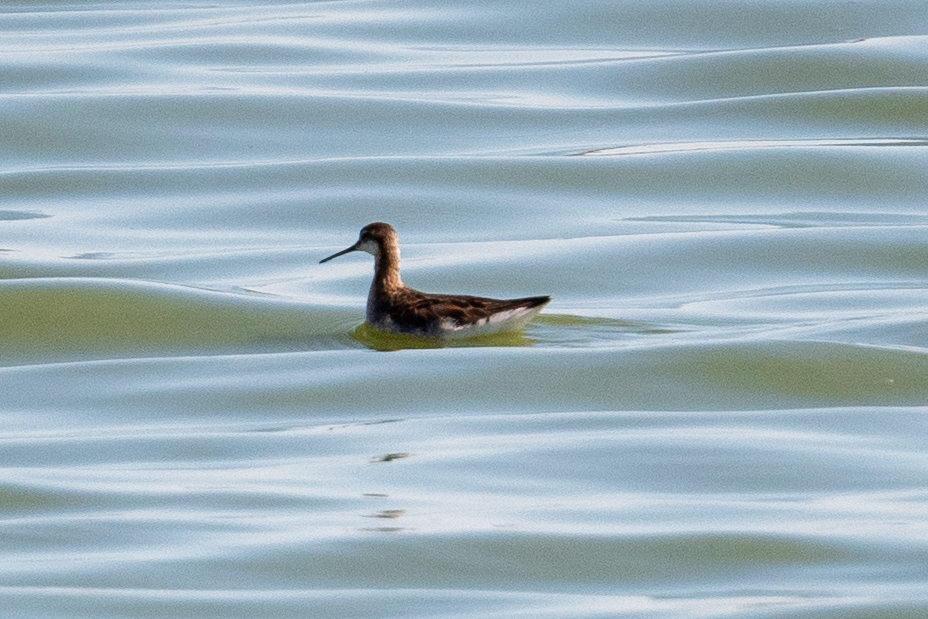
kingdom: Animalia
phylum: Chordata
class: Aves
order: Charadriiformes
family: Scolopacidae
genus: Phalaropus
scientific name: Phalaropus tricolor
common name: Wilson's phalarope
